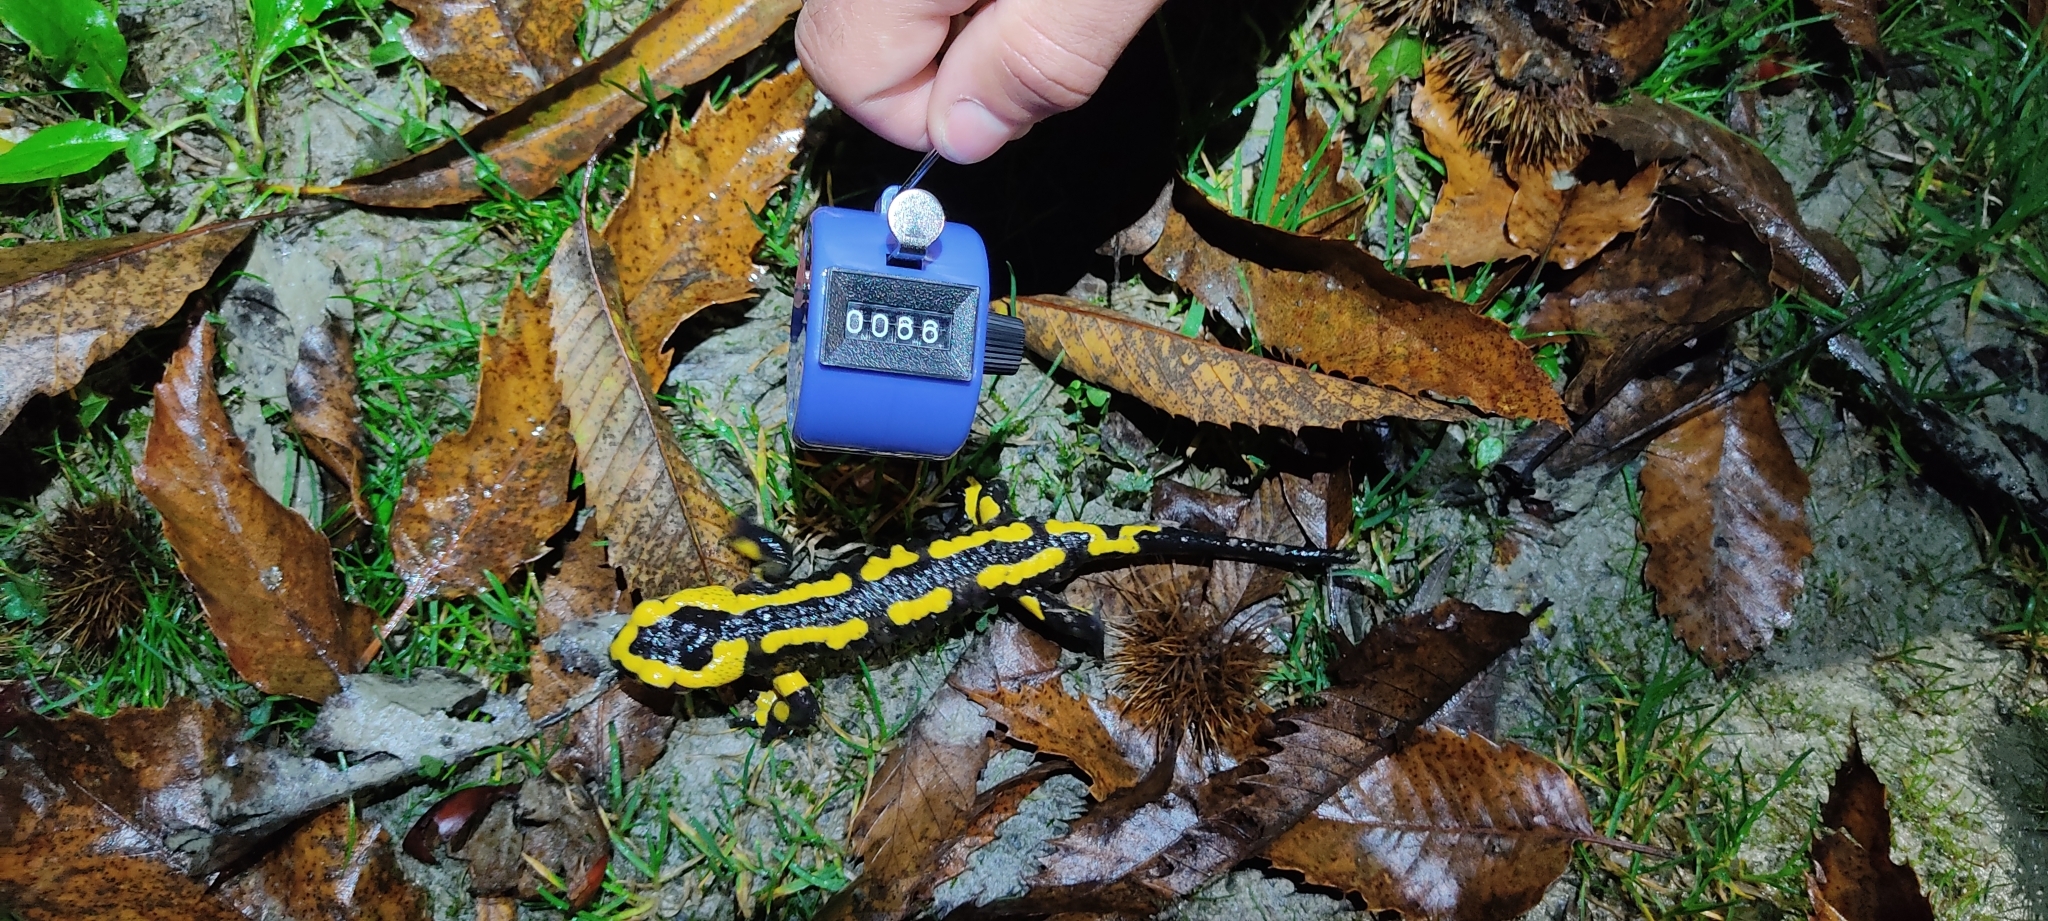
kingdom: Animalia
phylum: Chordata
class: Amphibia
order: Caudata
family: Salamandridae
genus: Salamandra
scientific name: Salamandra salamandra
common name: Fire salamander
